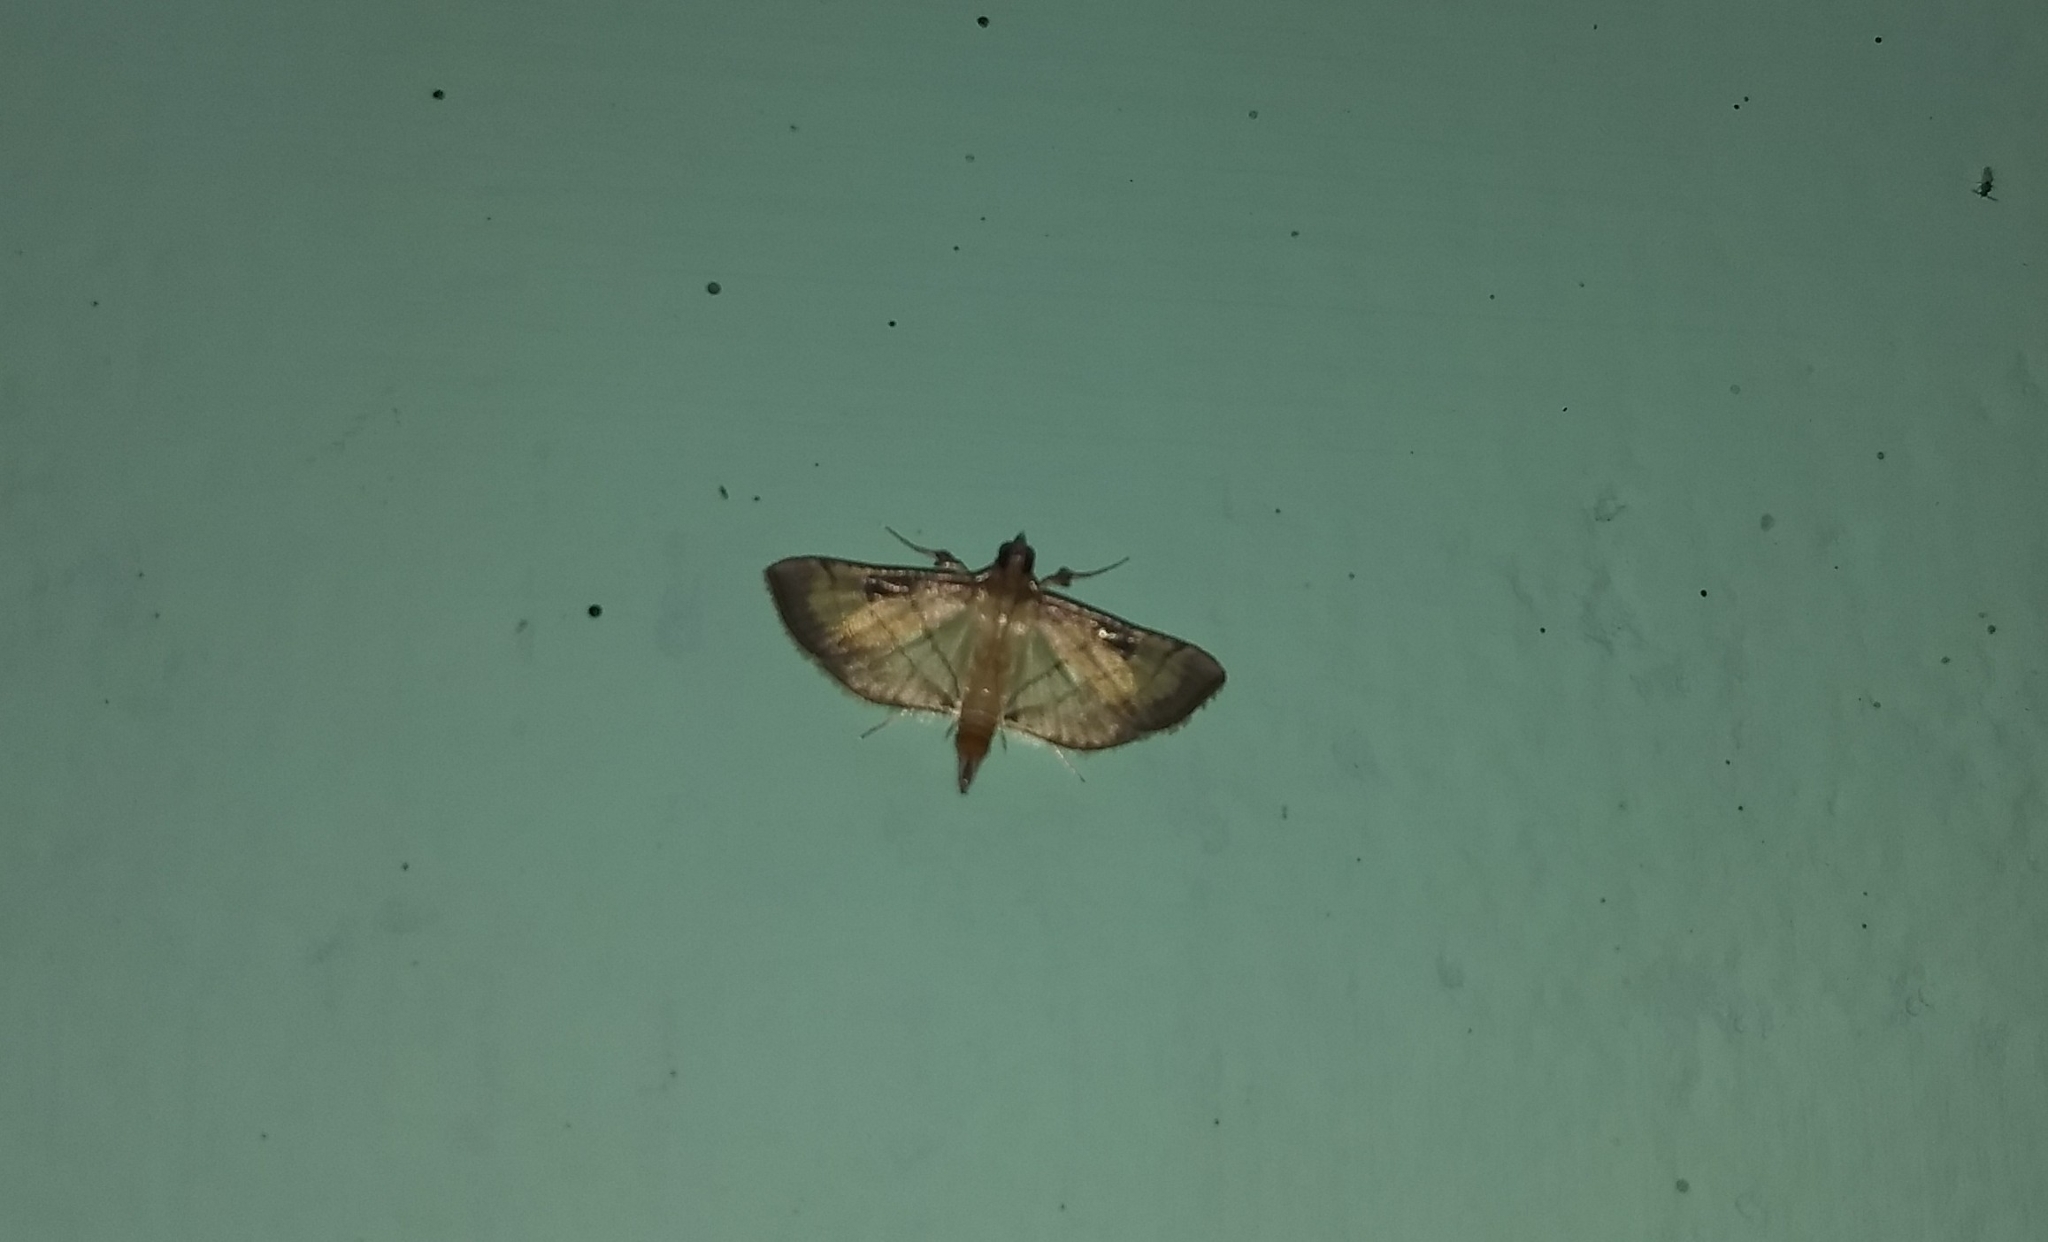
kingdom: Animalia
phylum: Arthropoda
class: Insecta
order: Lepidoptera
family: Crambidae
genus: Cnaphalocrocis
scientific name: Cnaphalocrocis poeyalis
